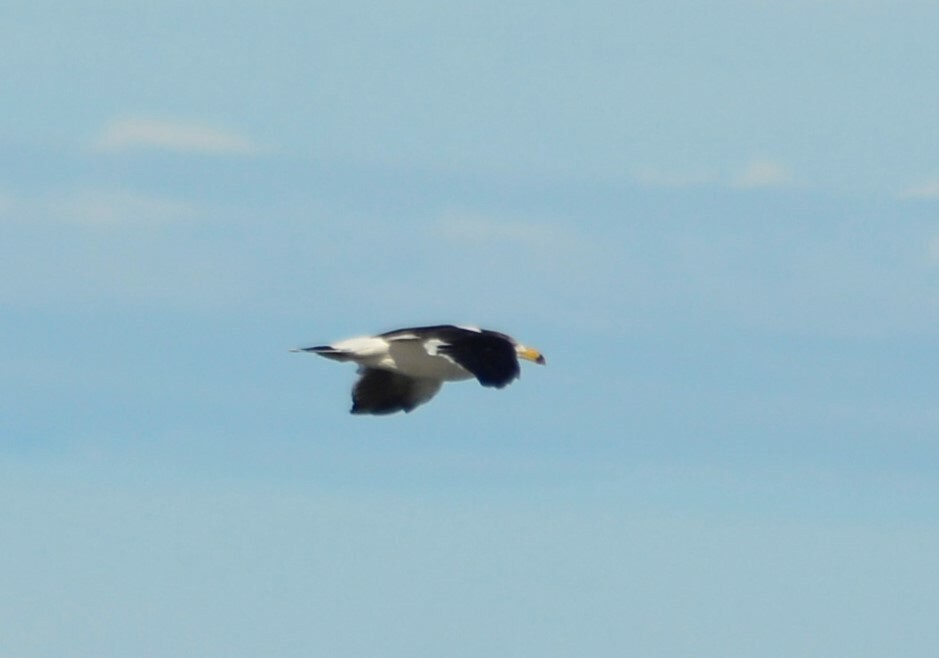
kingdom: Animalia
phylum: Chordata
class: Aves
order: Charadriiformes
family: Laridae
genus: Larus
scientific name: Larus atlanticus
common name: Olrog's gull
